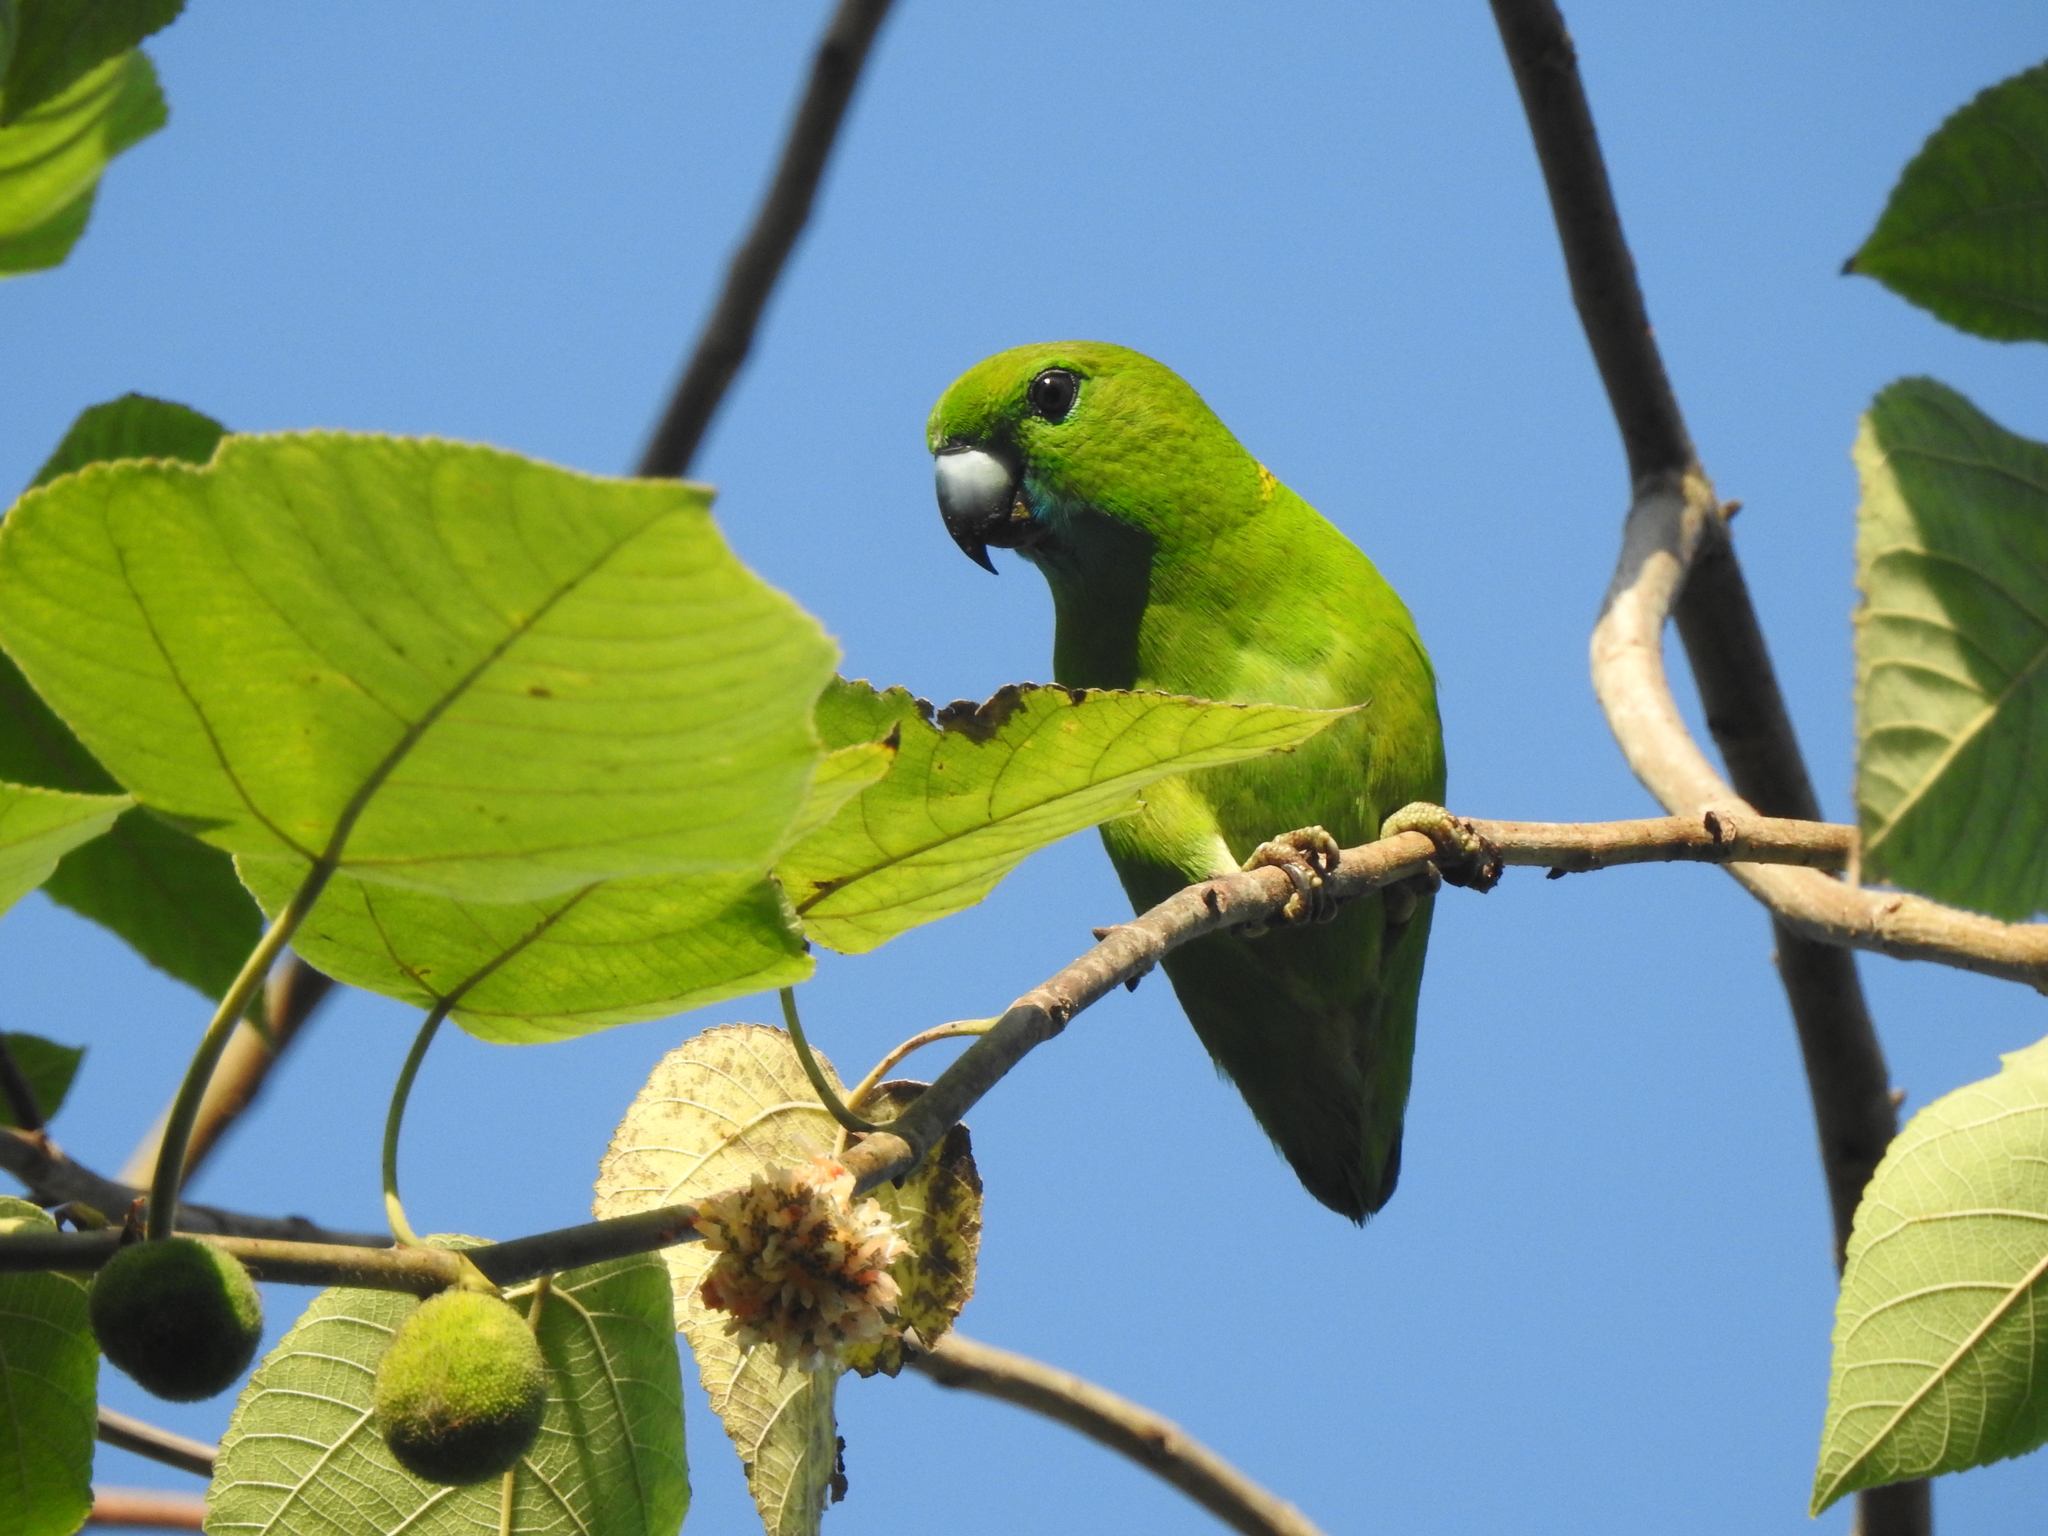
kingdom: Animalia
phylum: Chordata
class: Aves
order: Psittaciformes
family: Psittacidae
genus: Bolbopsittacus
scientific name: Bolbopsittacus lunulatus
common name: Guaiabero
